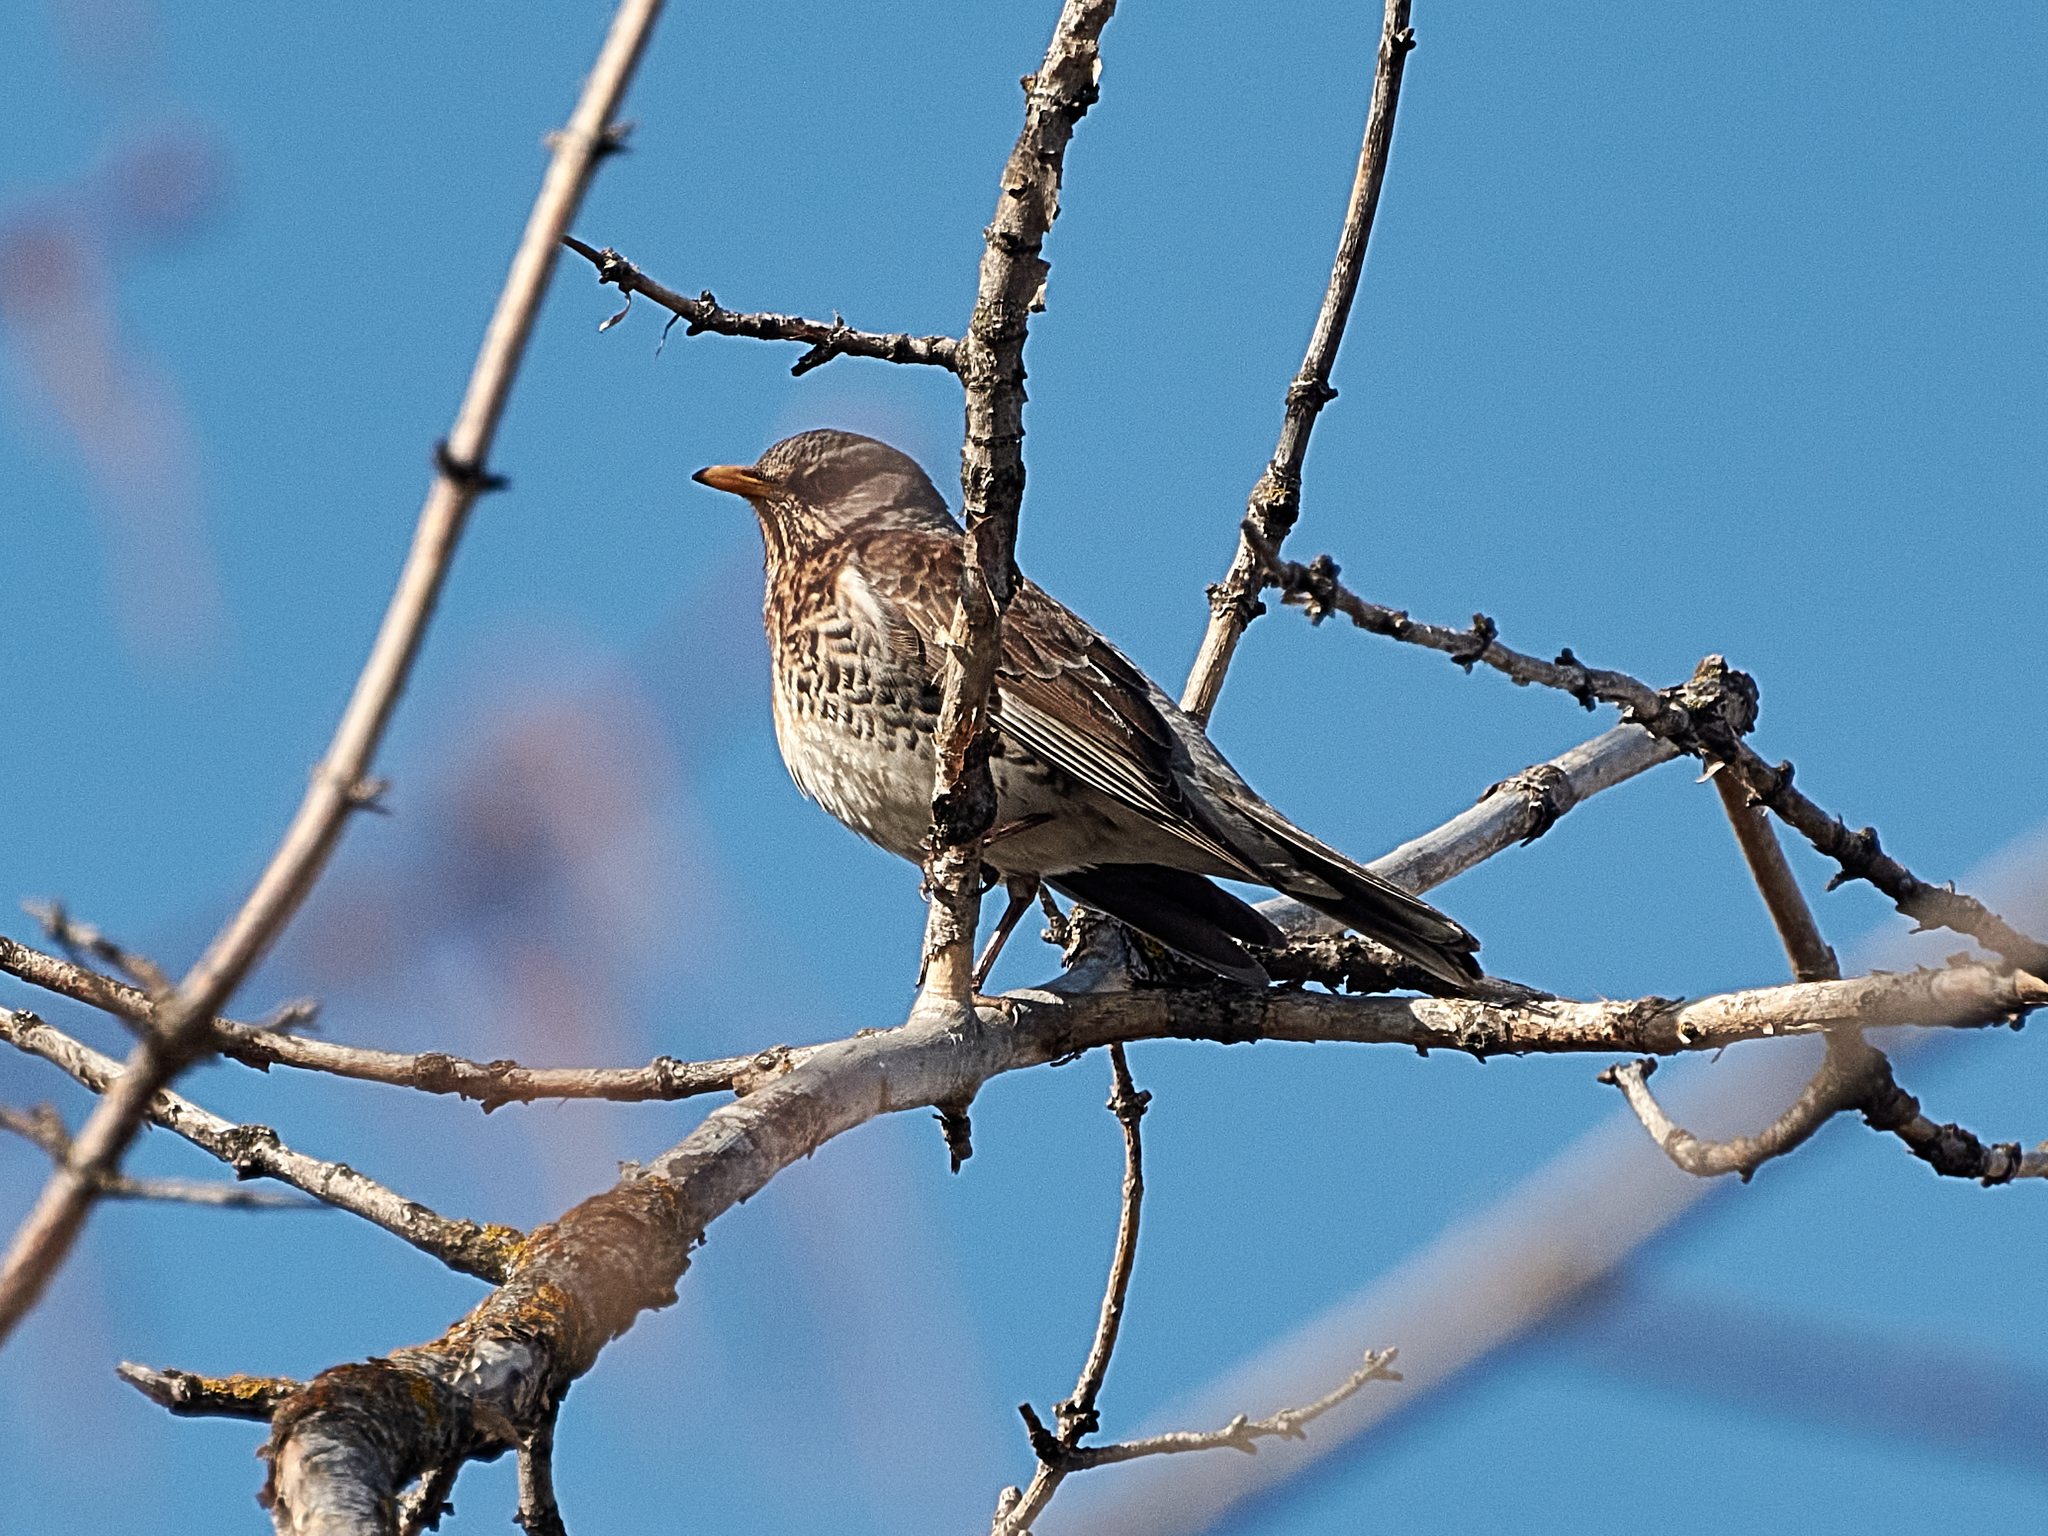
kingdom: Animalia
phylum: Chordata
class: Aves
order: Passeriformes
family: Turdidae
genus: Turdus
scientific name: Turdus pilaris
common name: Fieldfare
